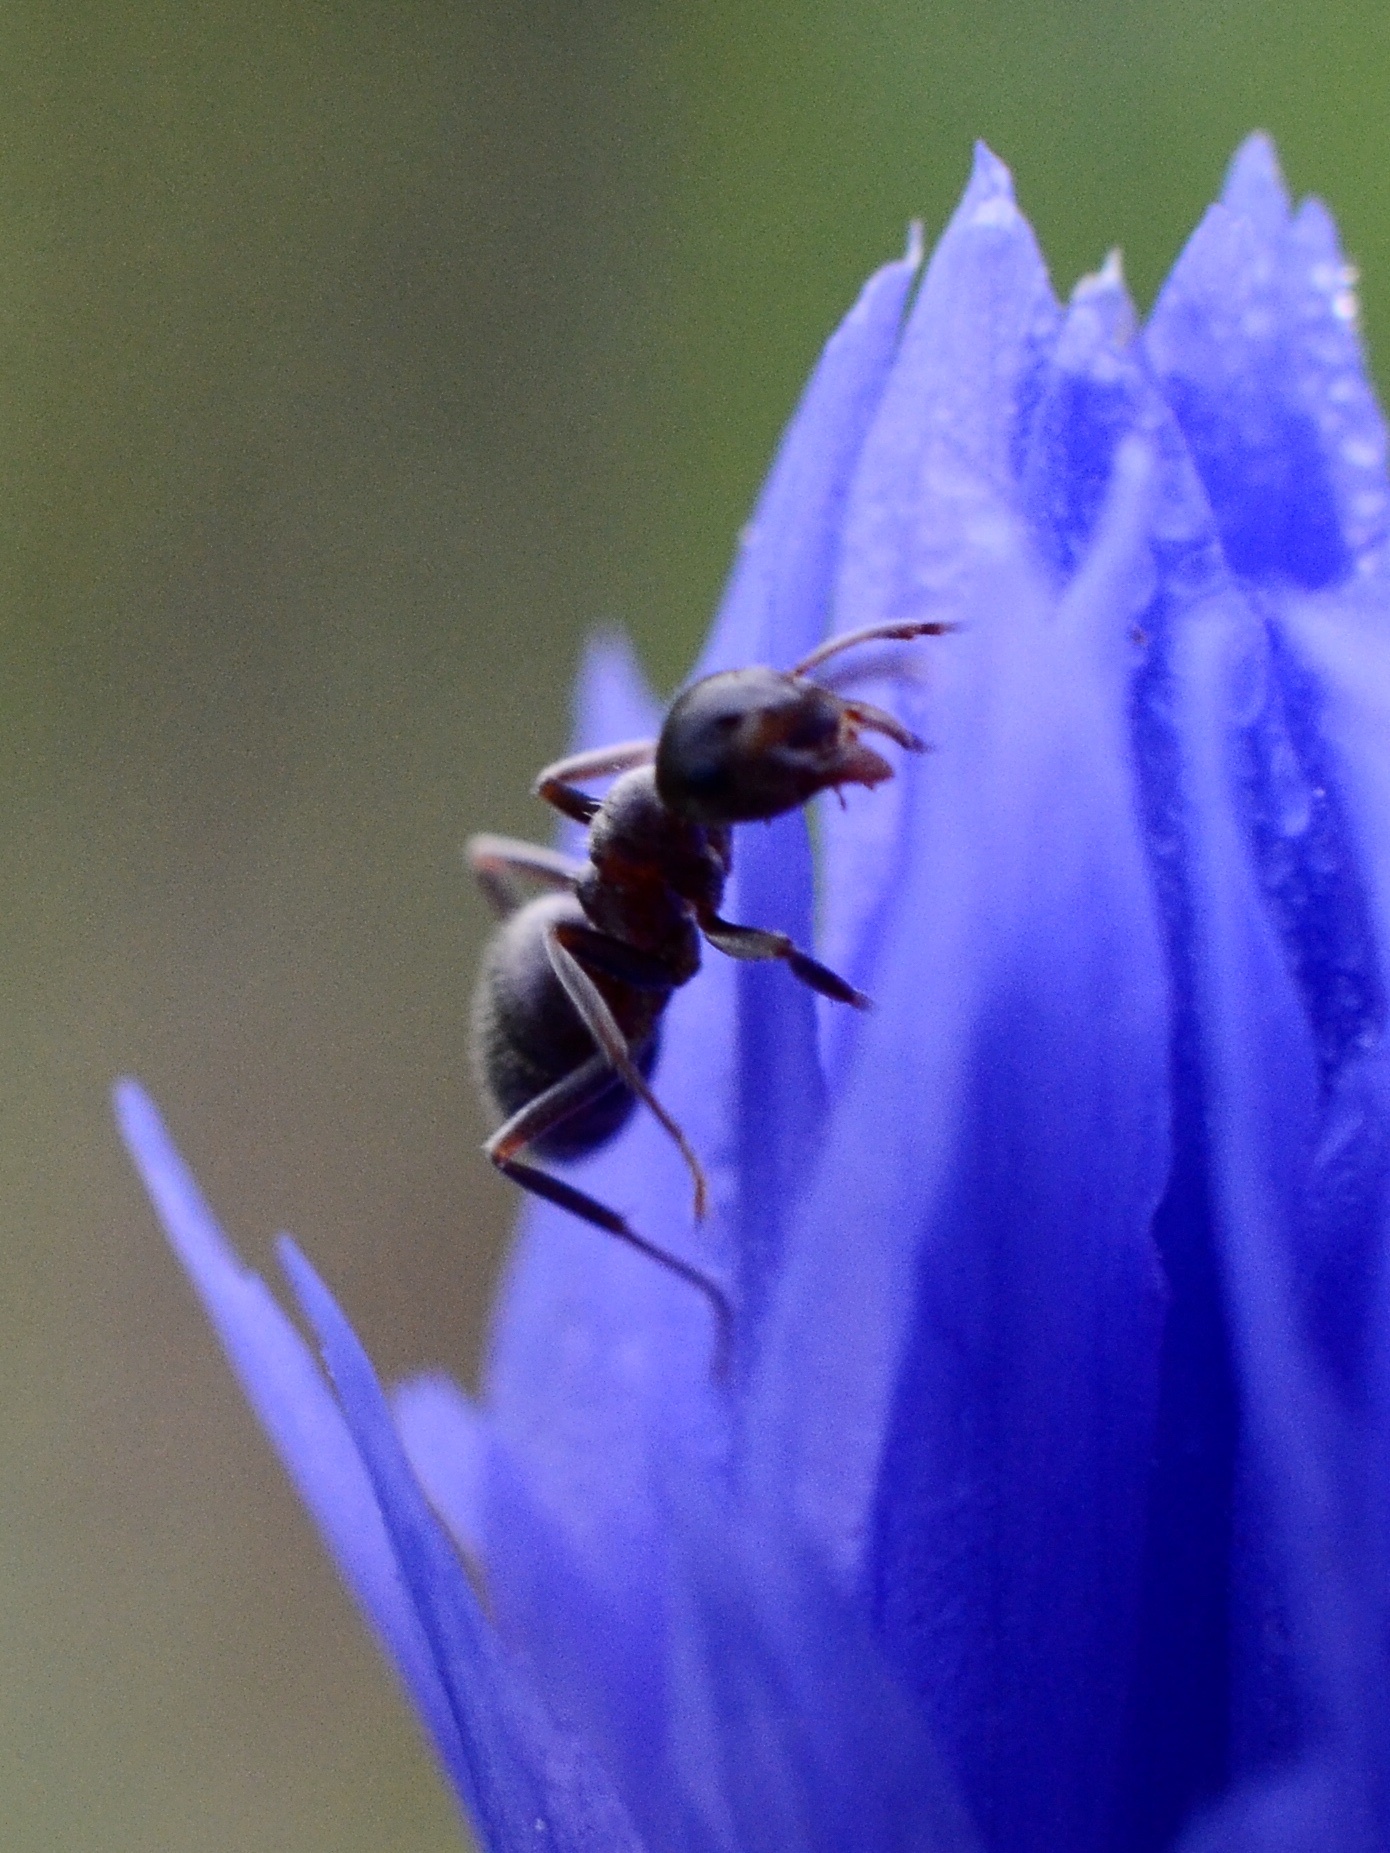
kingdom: Animalia
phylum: Arthropoda
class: Insecta
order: Hymenoptera
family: Formicidae
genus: Lasius
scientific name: Lasius
